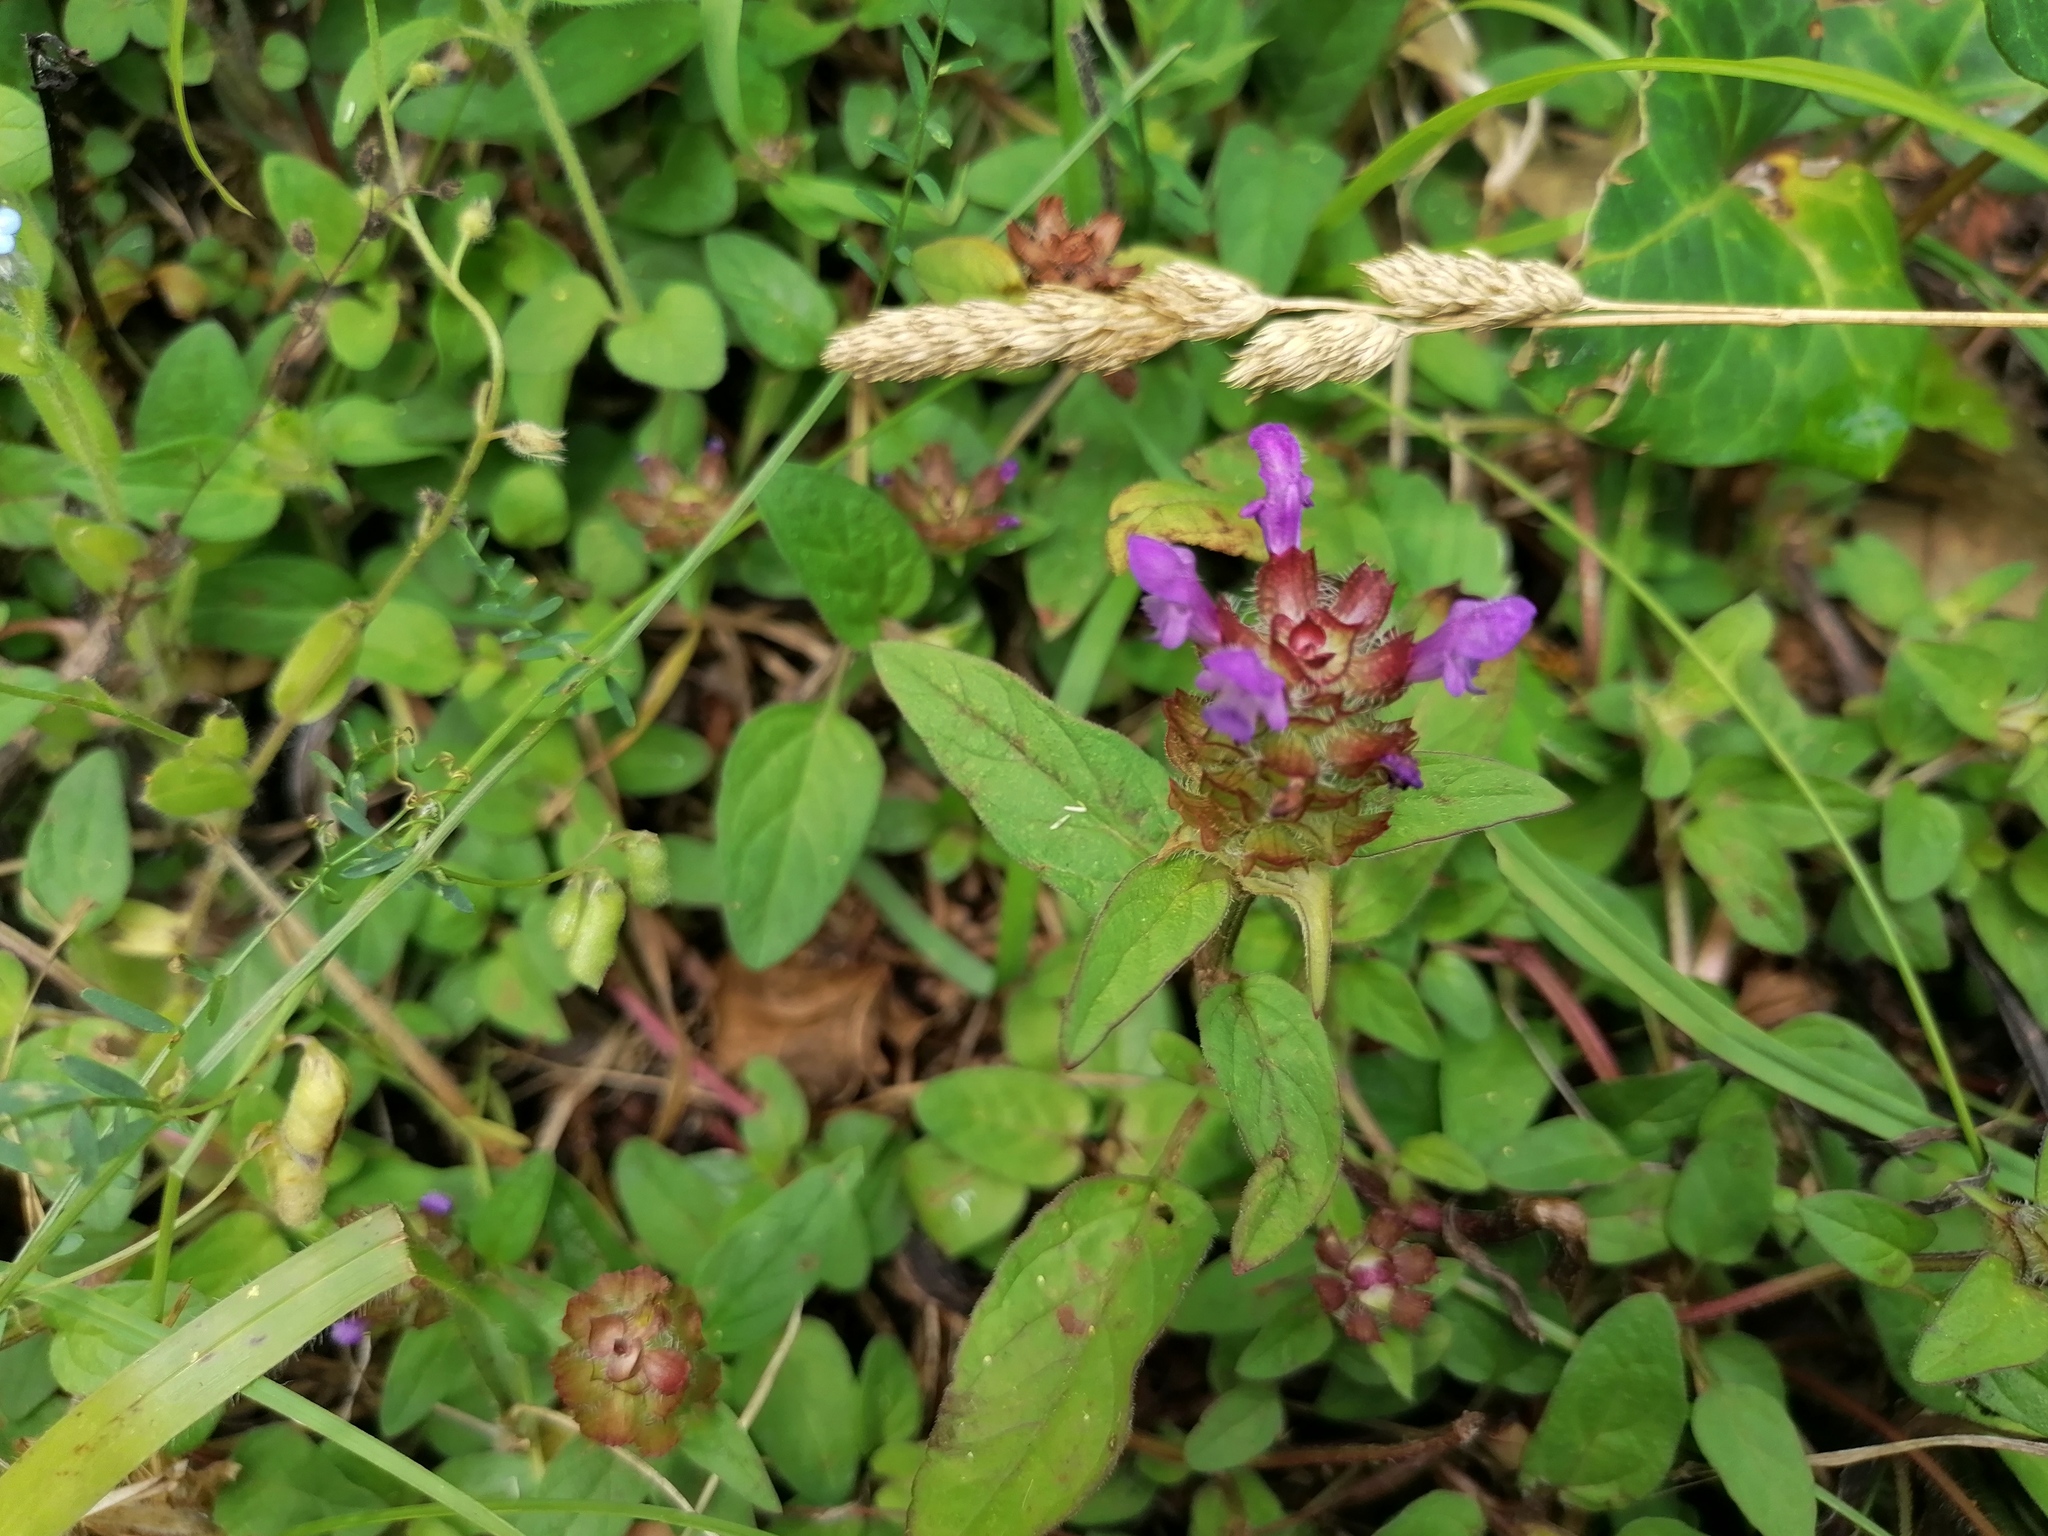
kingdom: Plantae
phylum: Tracheophyta
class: Magnoliopsida
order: Lamiales
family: Lamiaceae
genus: Prunella
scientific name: Prunella vulgaris
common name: Heal-all
